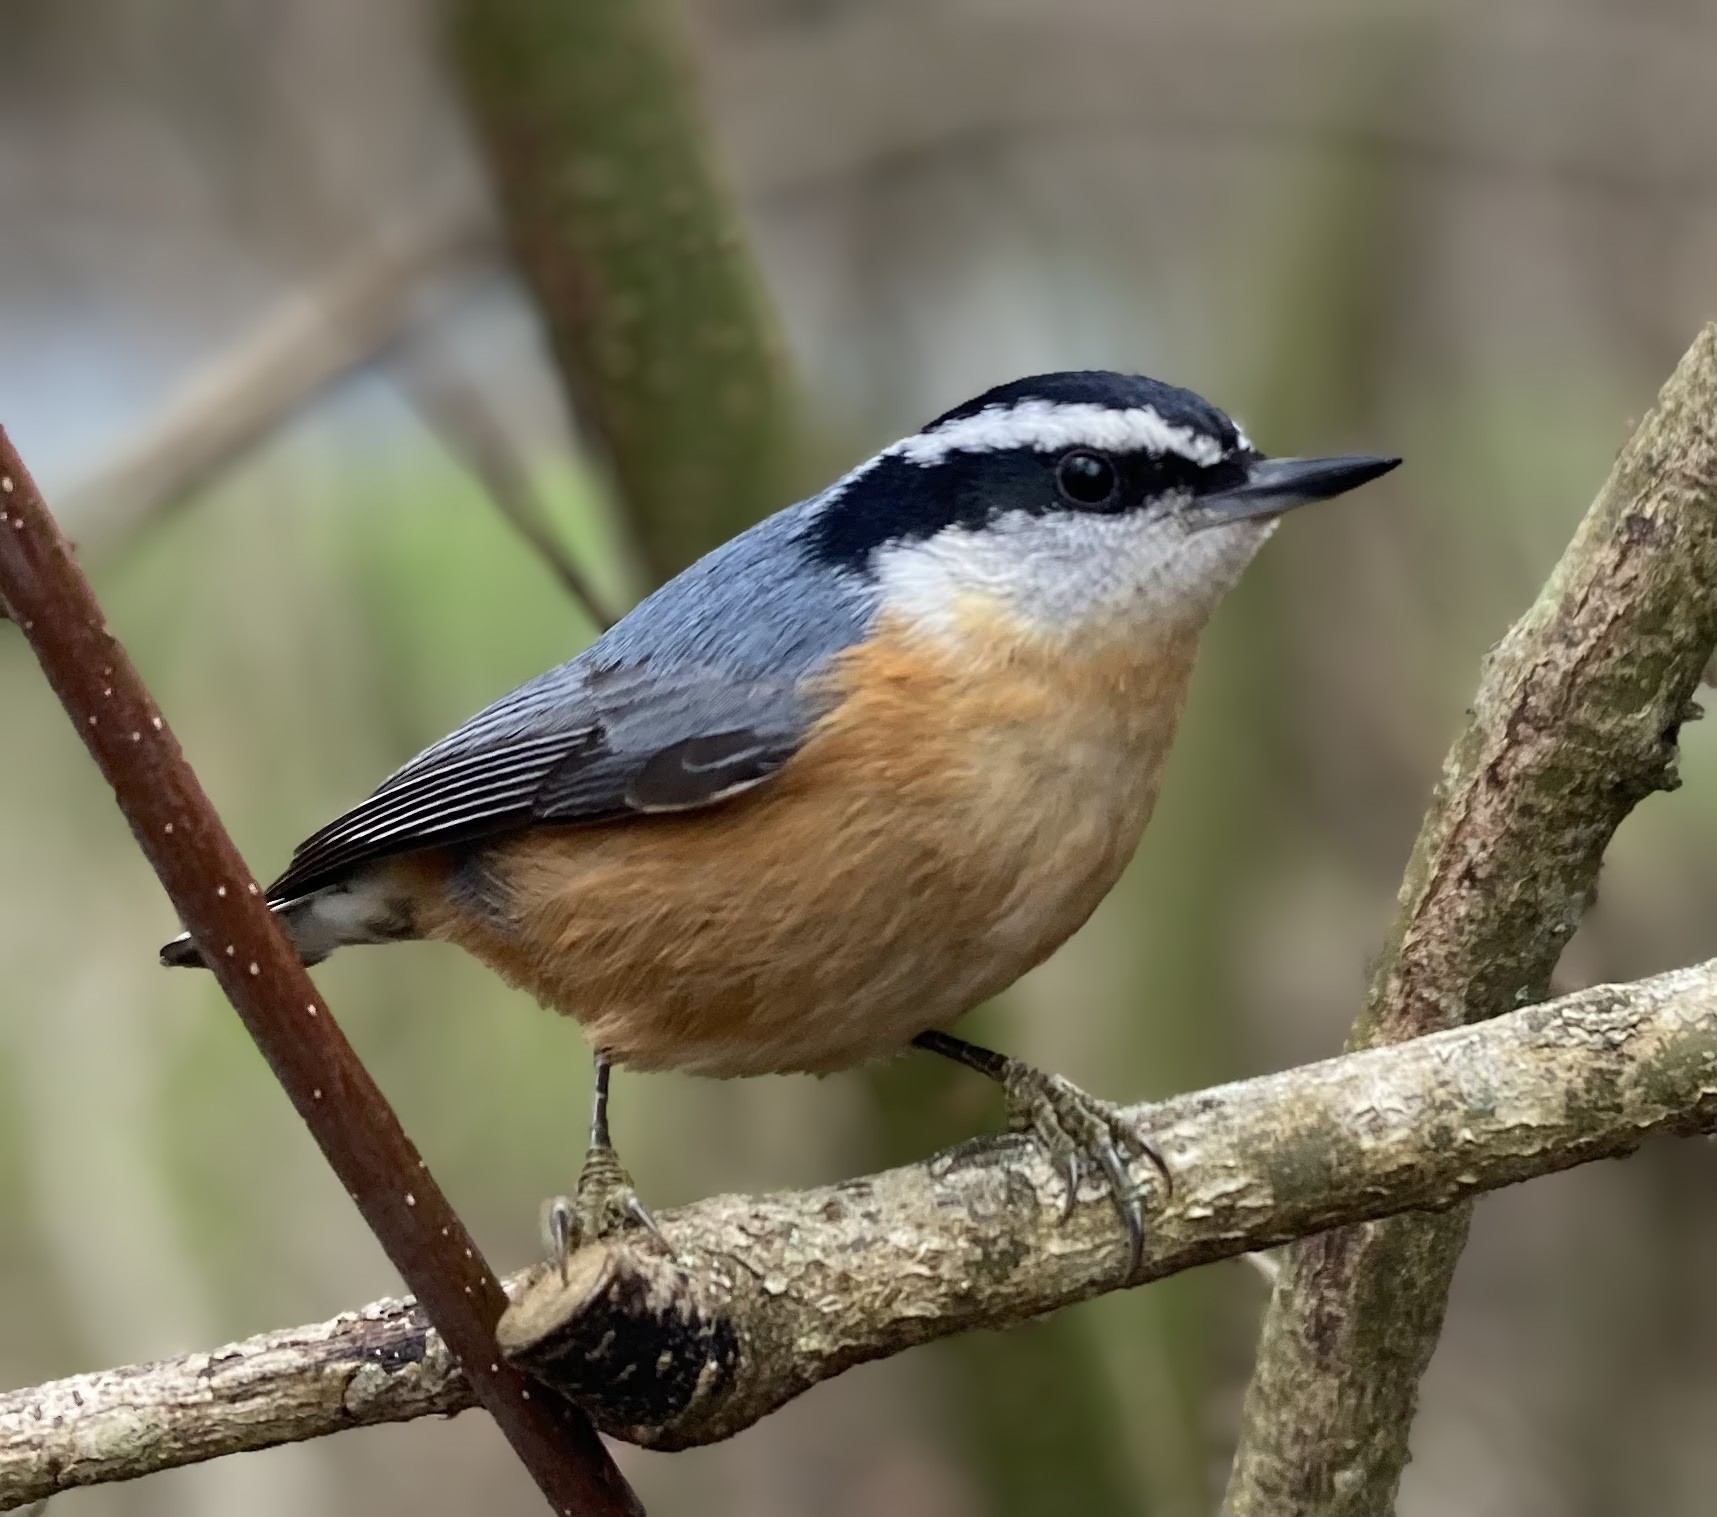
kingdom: Animalia
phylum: Chordata
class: Aves
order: Passeriformes
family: Sittidae
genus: Sitta
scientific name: Sitta canadensis
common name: Red-breasted nuthatch
